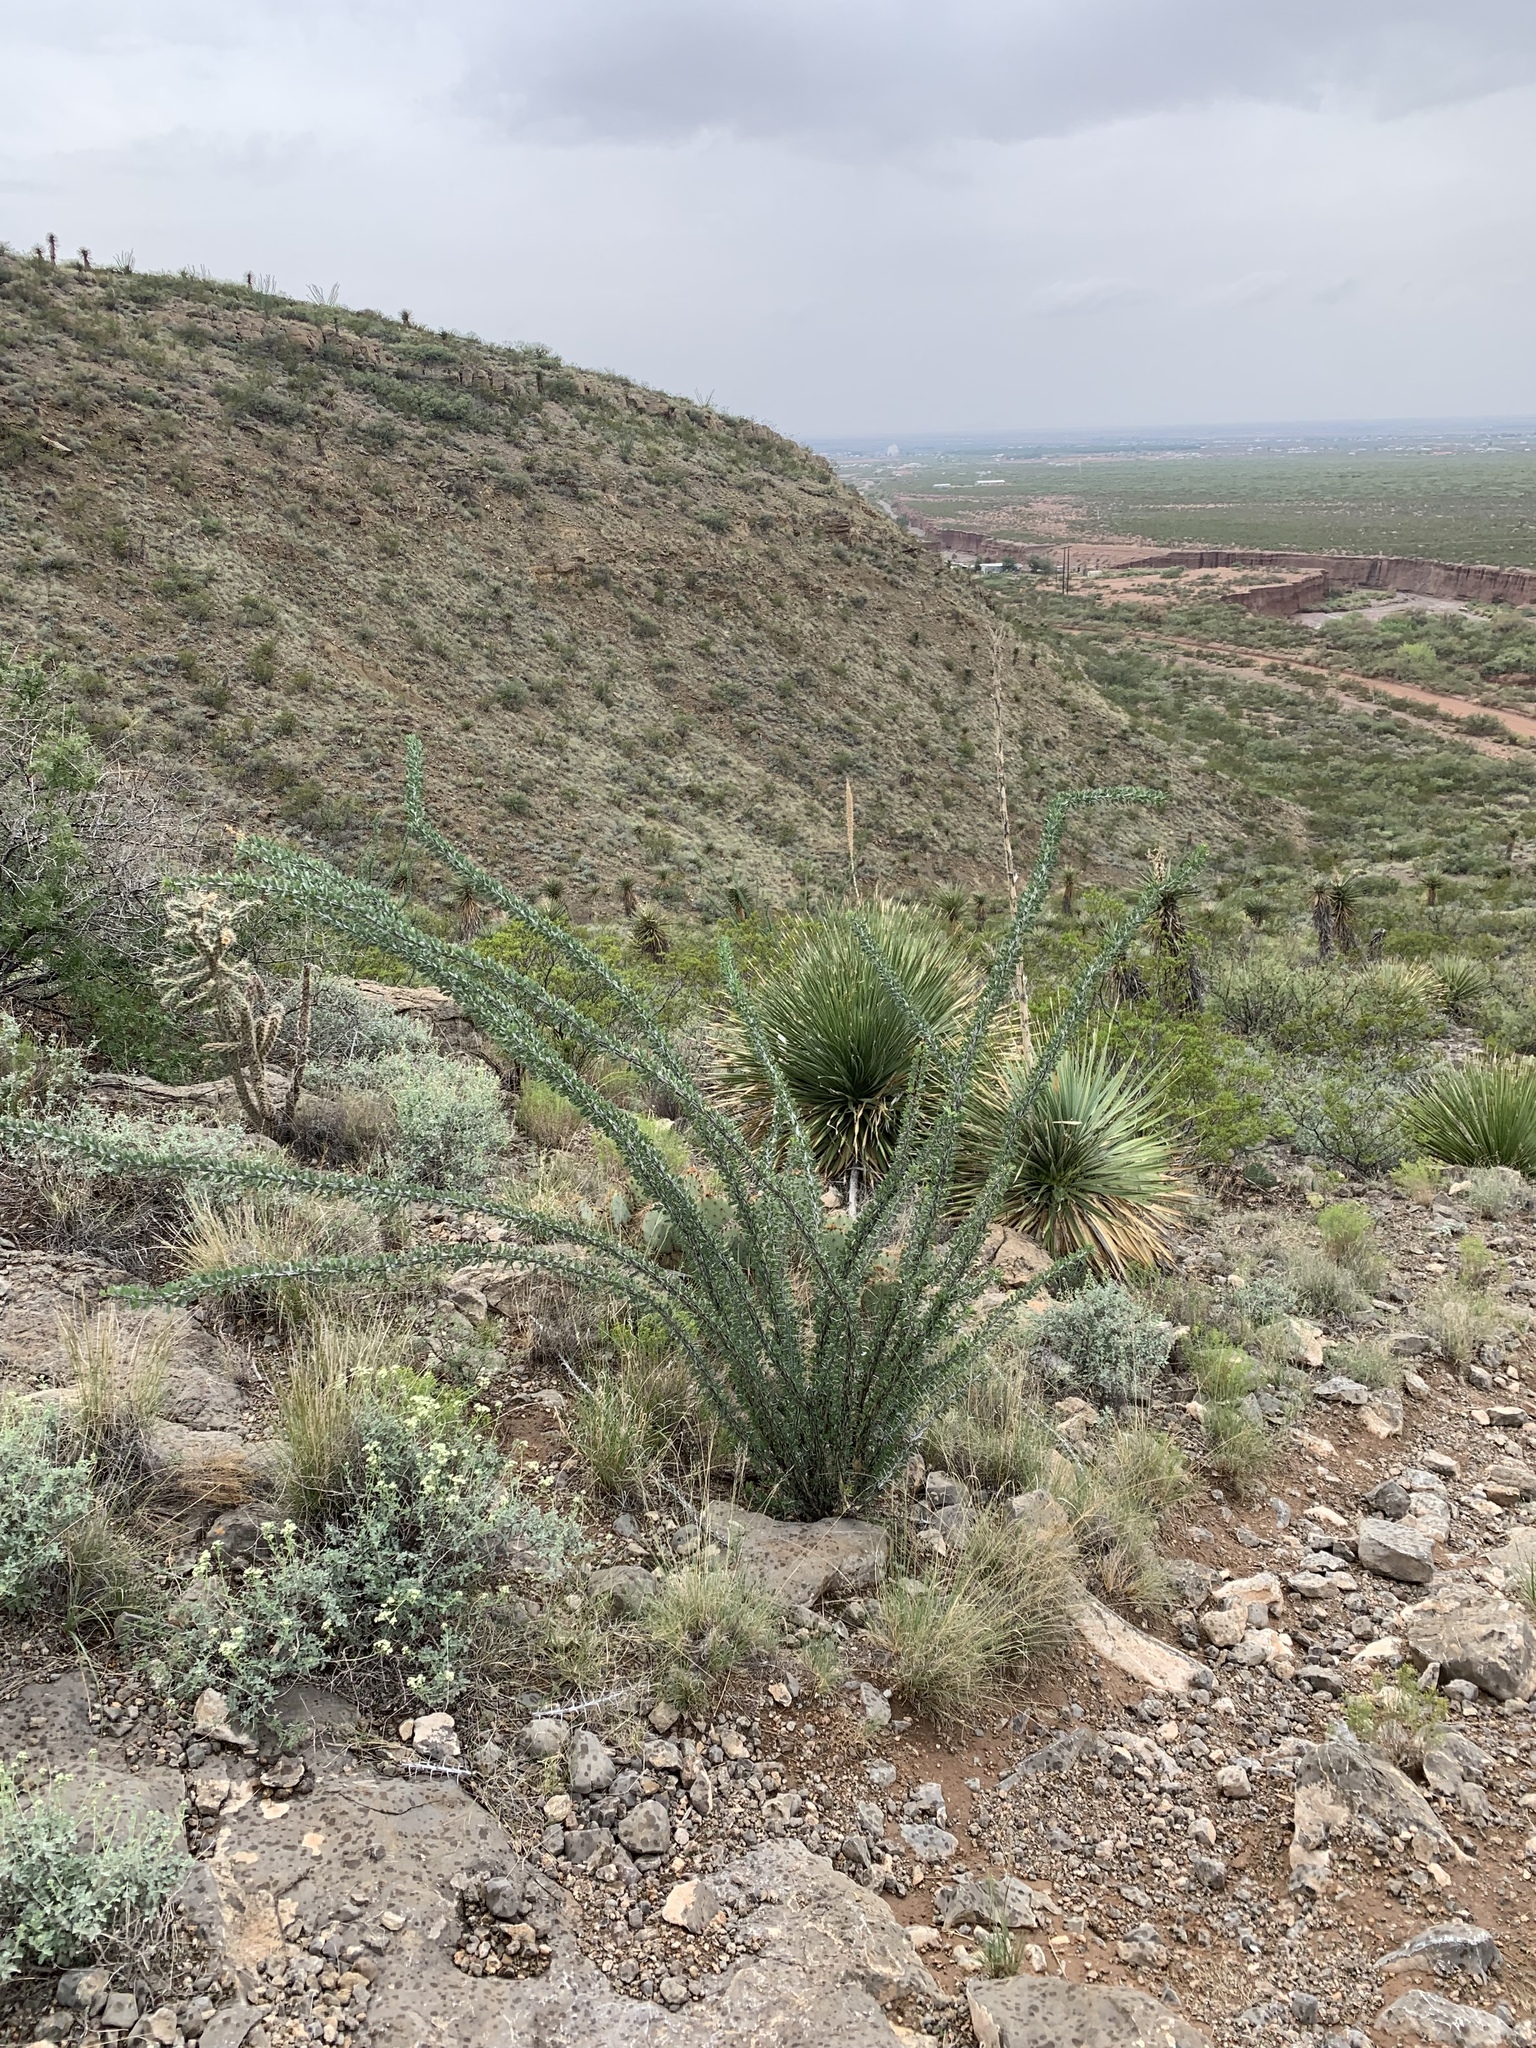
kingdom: Plantae
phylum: Tracheophyta
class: Magnoliopsida
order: Ericales
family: Fouquieriaceae
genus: Fouquieria
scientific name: Fouquieria splendens
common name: Vine-cactus
